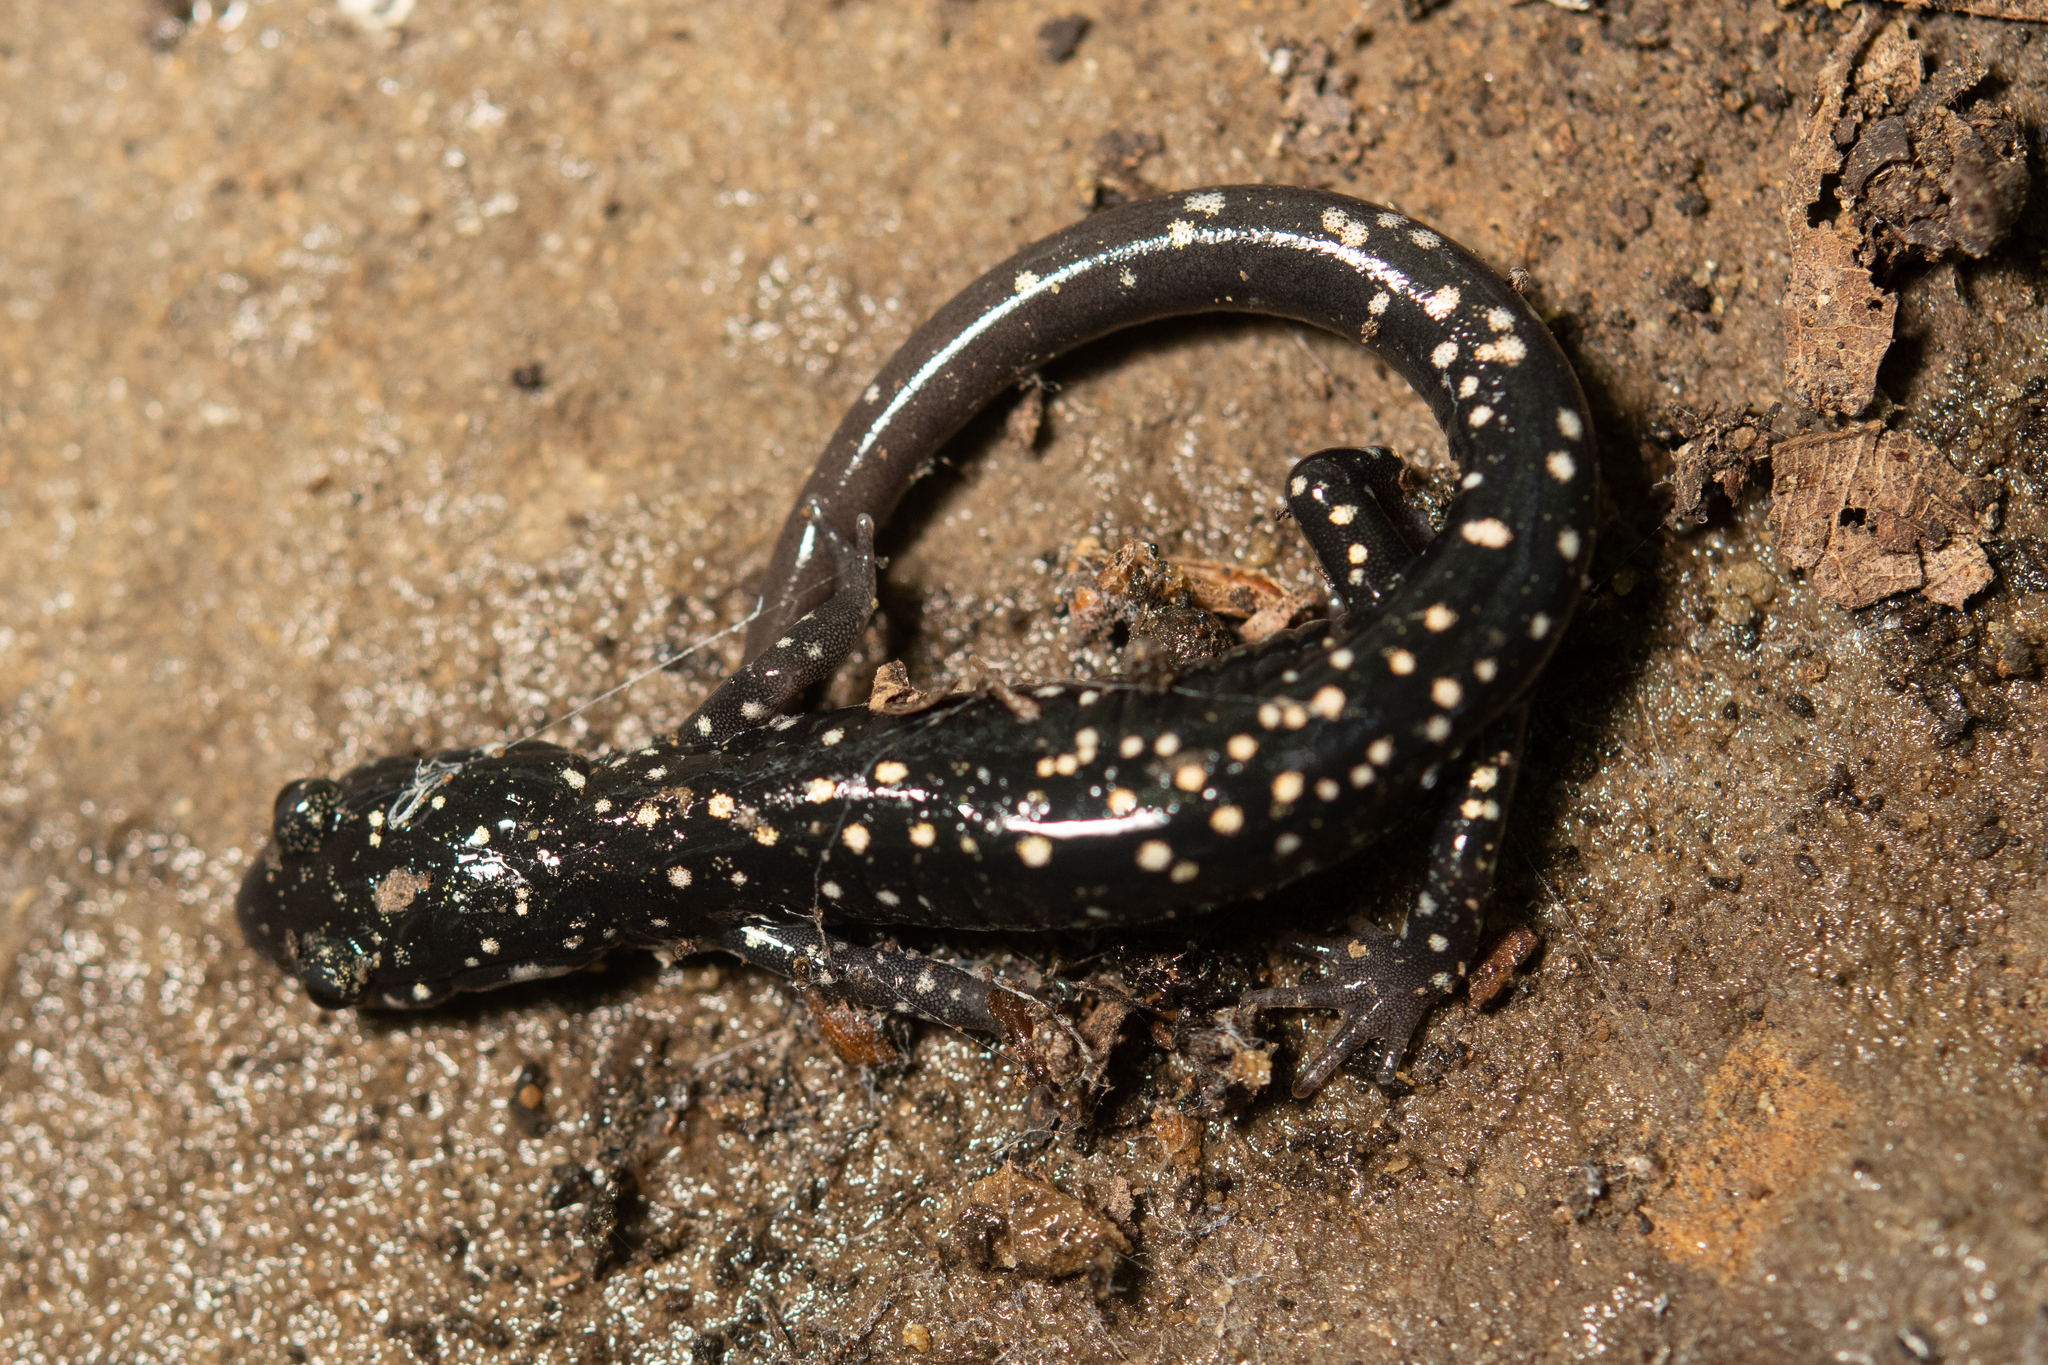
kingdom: Animalia
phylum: Chordata
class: Amphibia
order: Caudata
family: Plethodontidae
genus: Plethodon
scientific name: Plethodon glutinosus
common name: Northern slimy salamander
